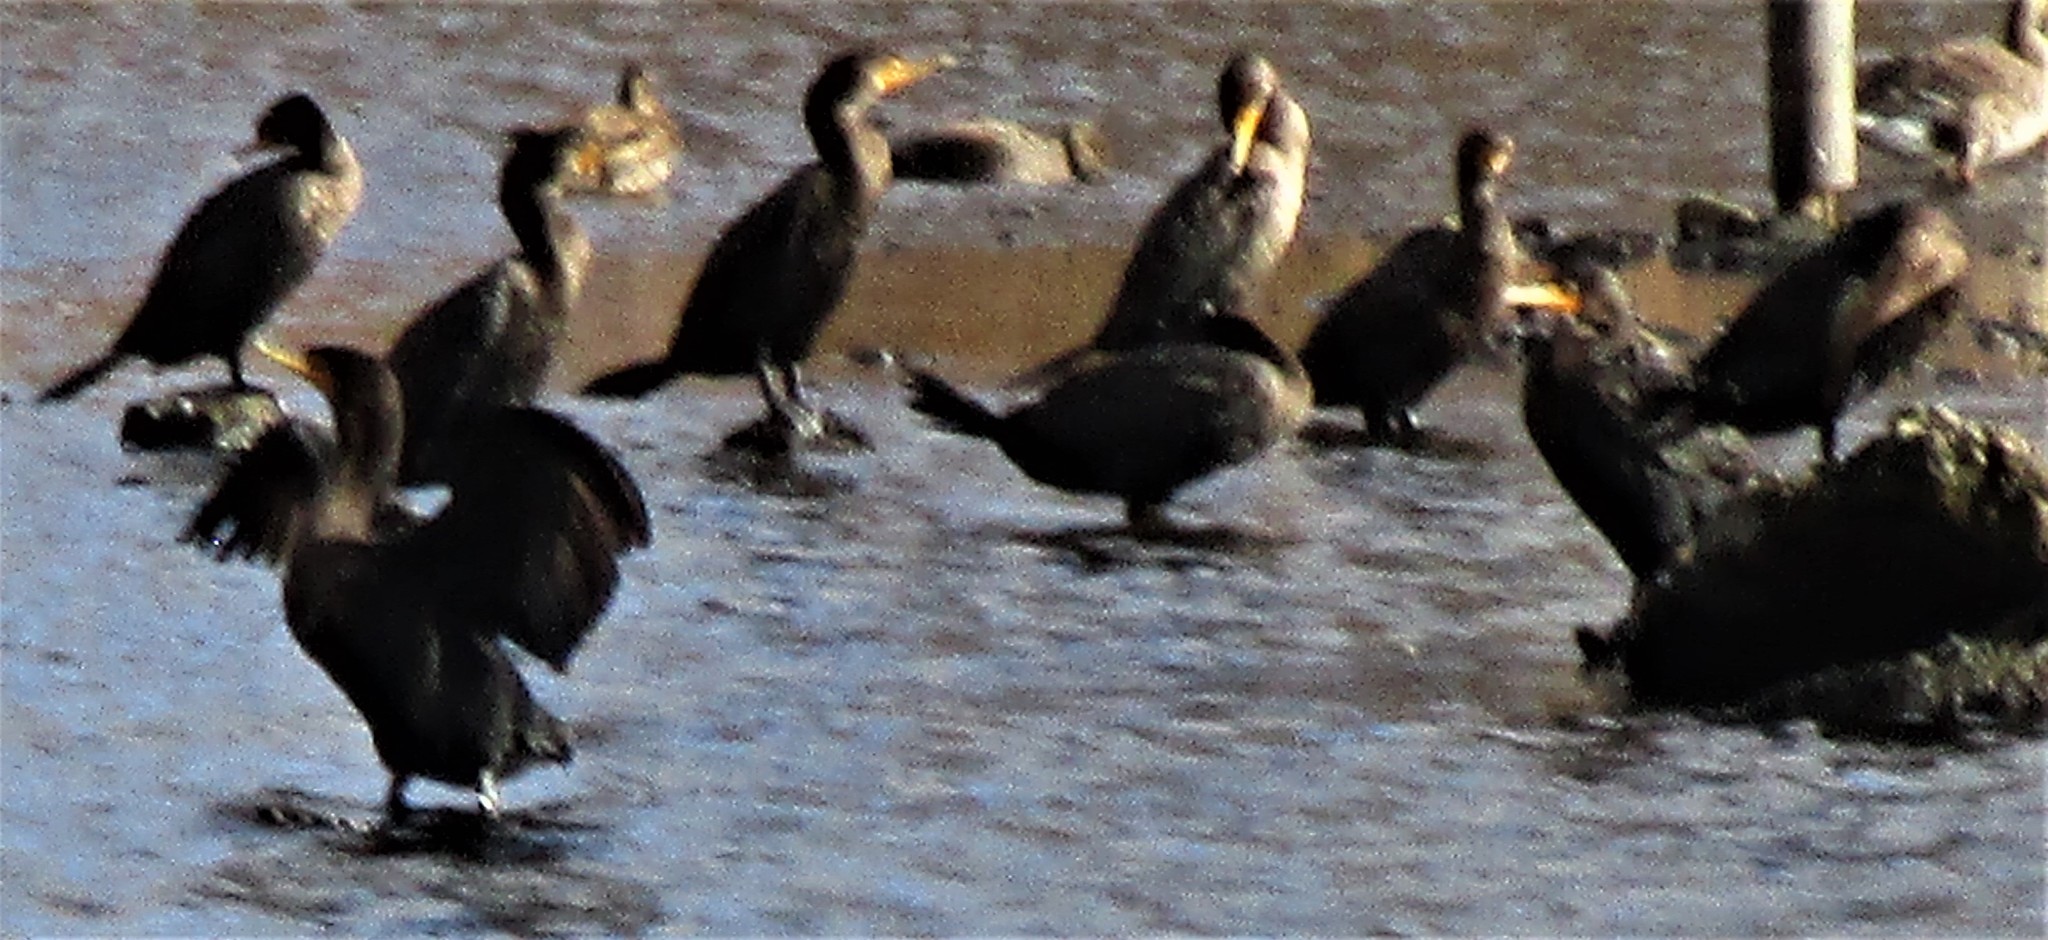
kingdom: Animalia
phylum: Chordata
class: Aves
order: Suliformes
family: Phalacrocoracidae
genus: Phalacrocorax
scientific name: Phalacrocorax auritus
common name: Double-crested cormorant
